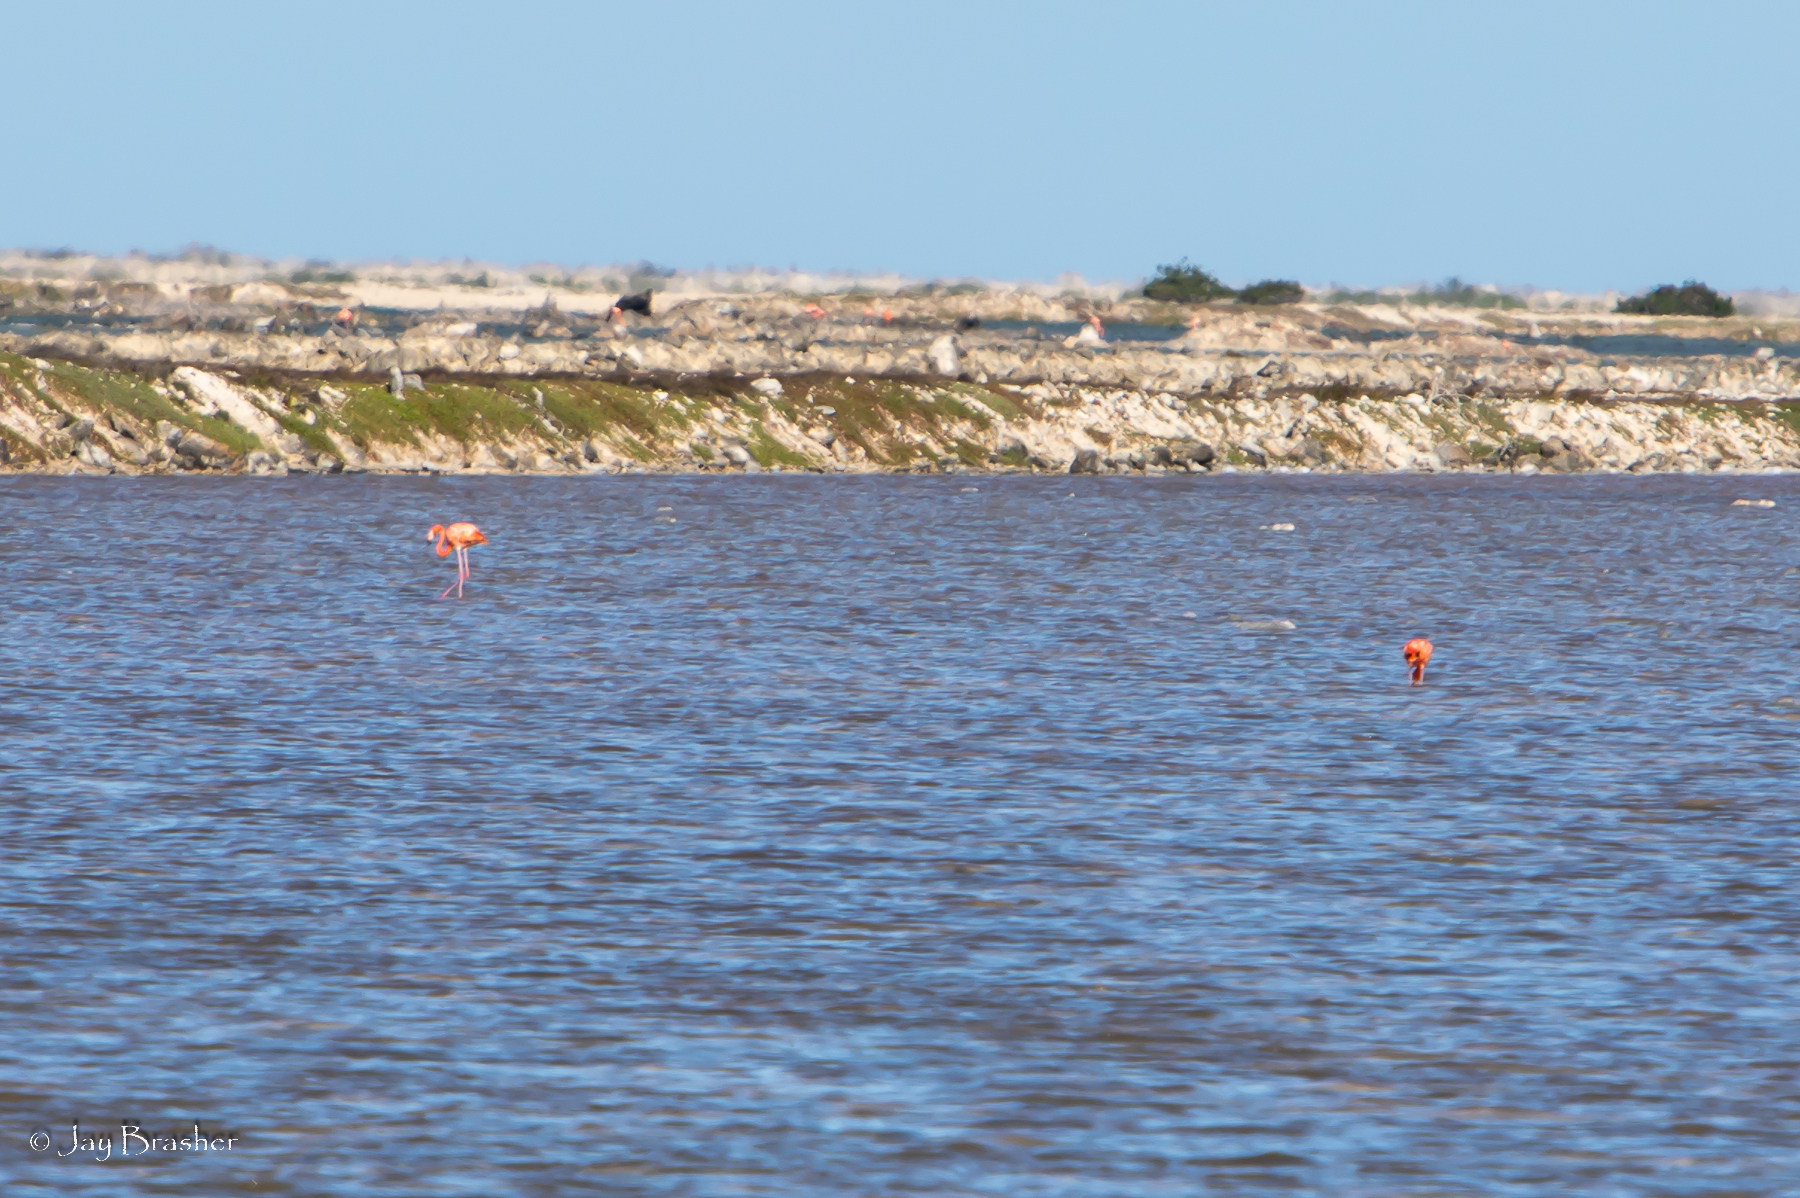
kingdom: Animalia
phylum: Chordata
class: Aves
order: Phoenicopteriformes
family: Phoenicopteridae
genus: Phoenicopterus
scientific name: Phoenicopterus ruber
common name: American flamingo
